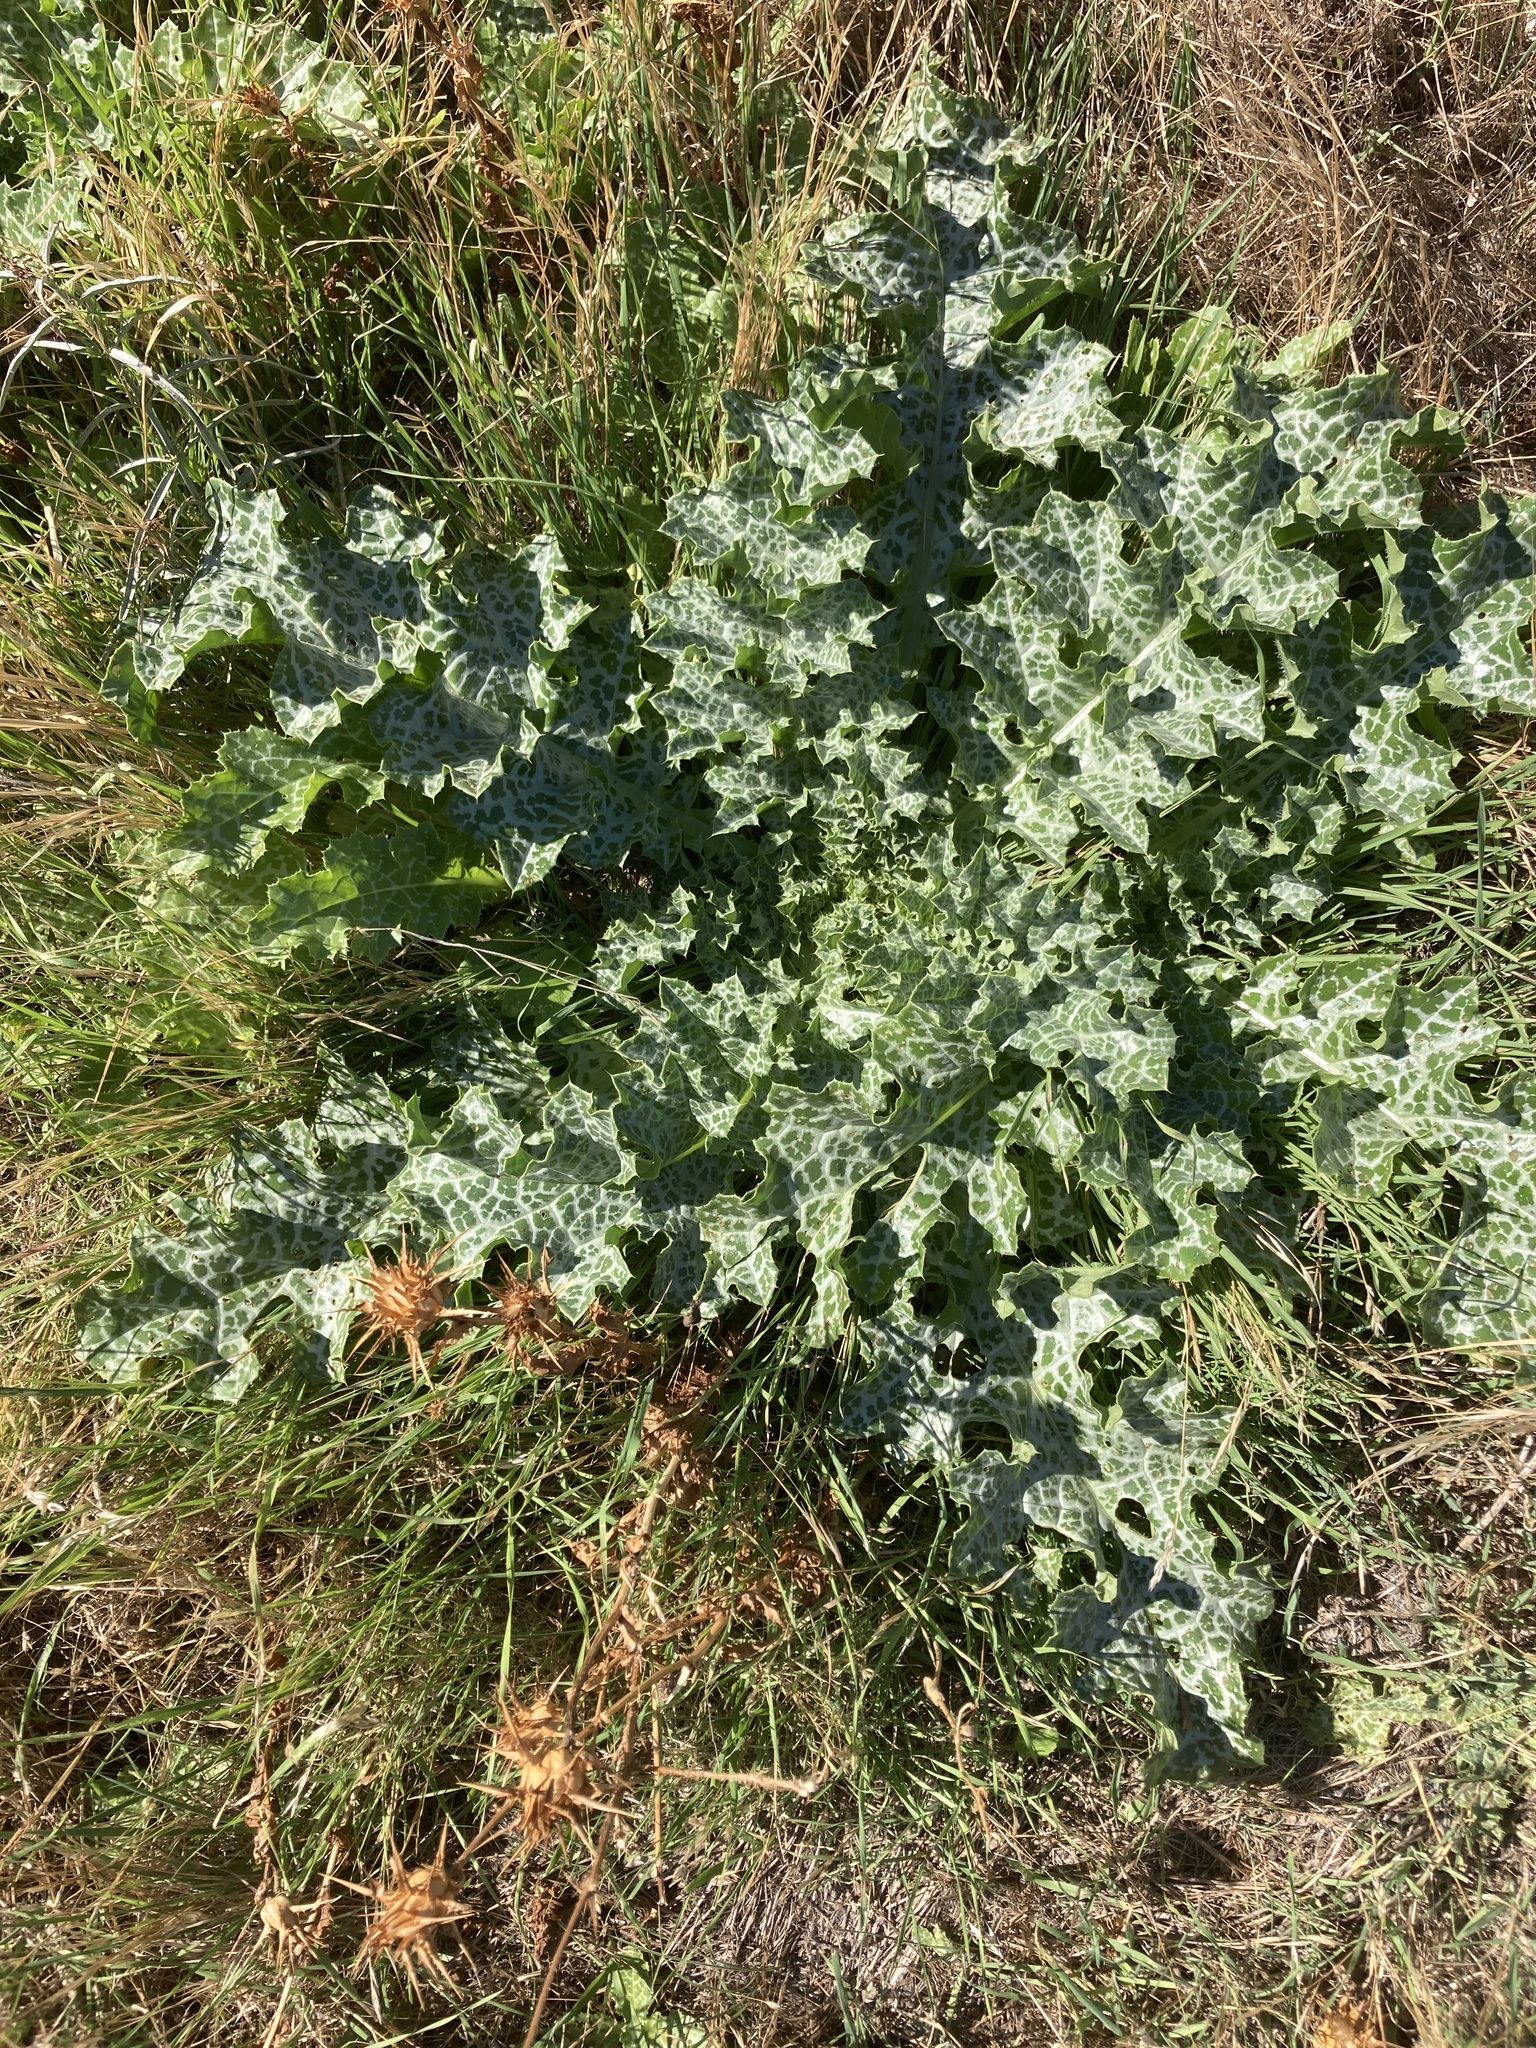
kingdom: Plantae
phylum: Tracheophyta
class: Magnoliopsida
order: Asterales
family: Asteraceae
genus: Silybum
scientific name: Silybum marianum
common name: Milk thistle
